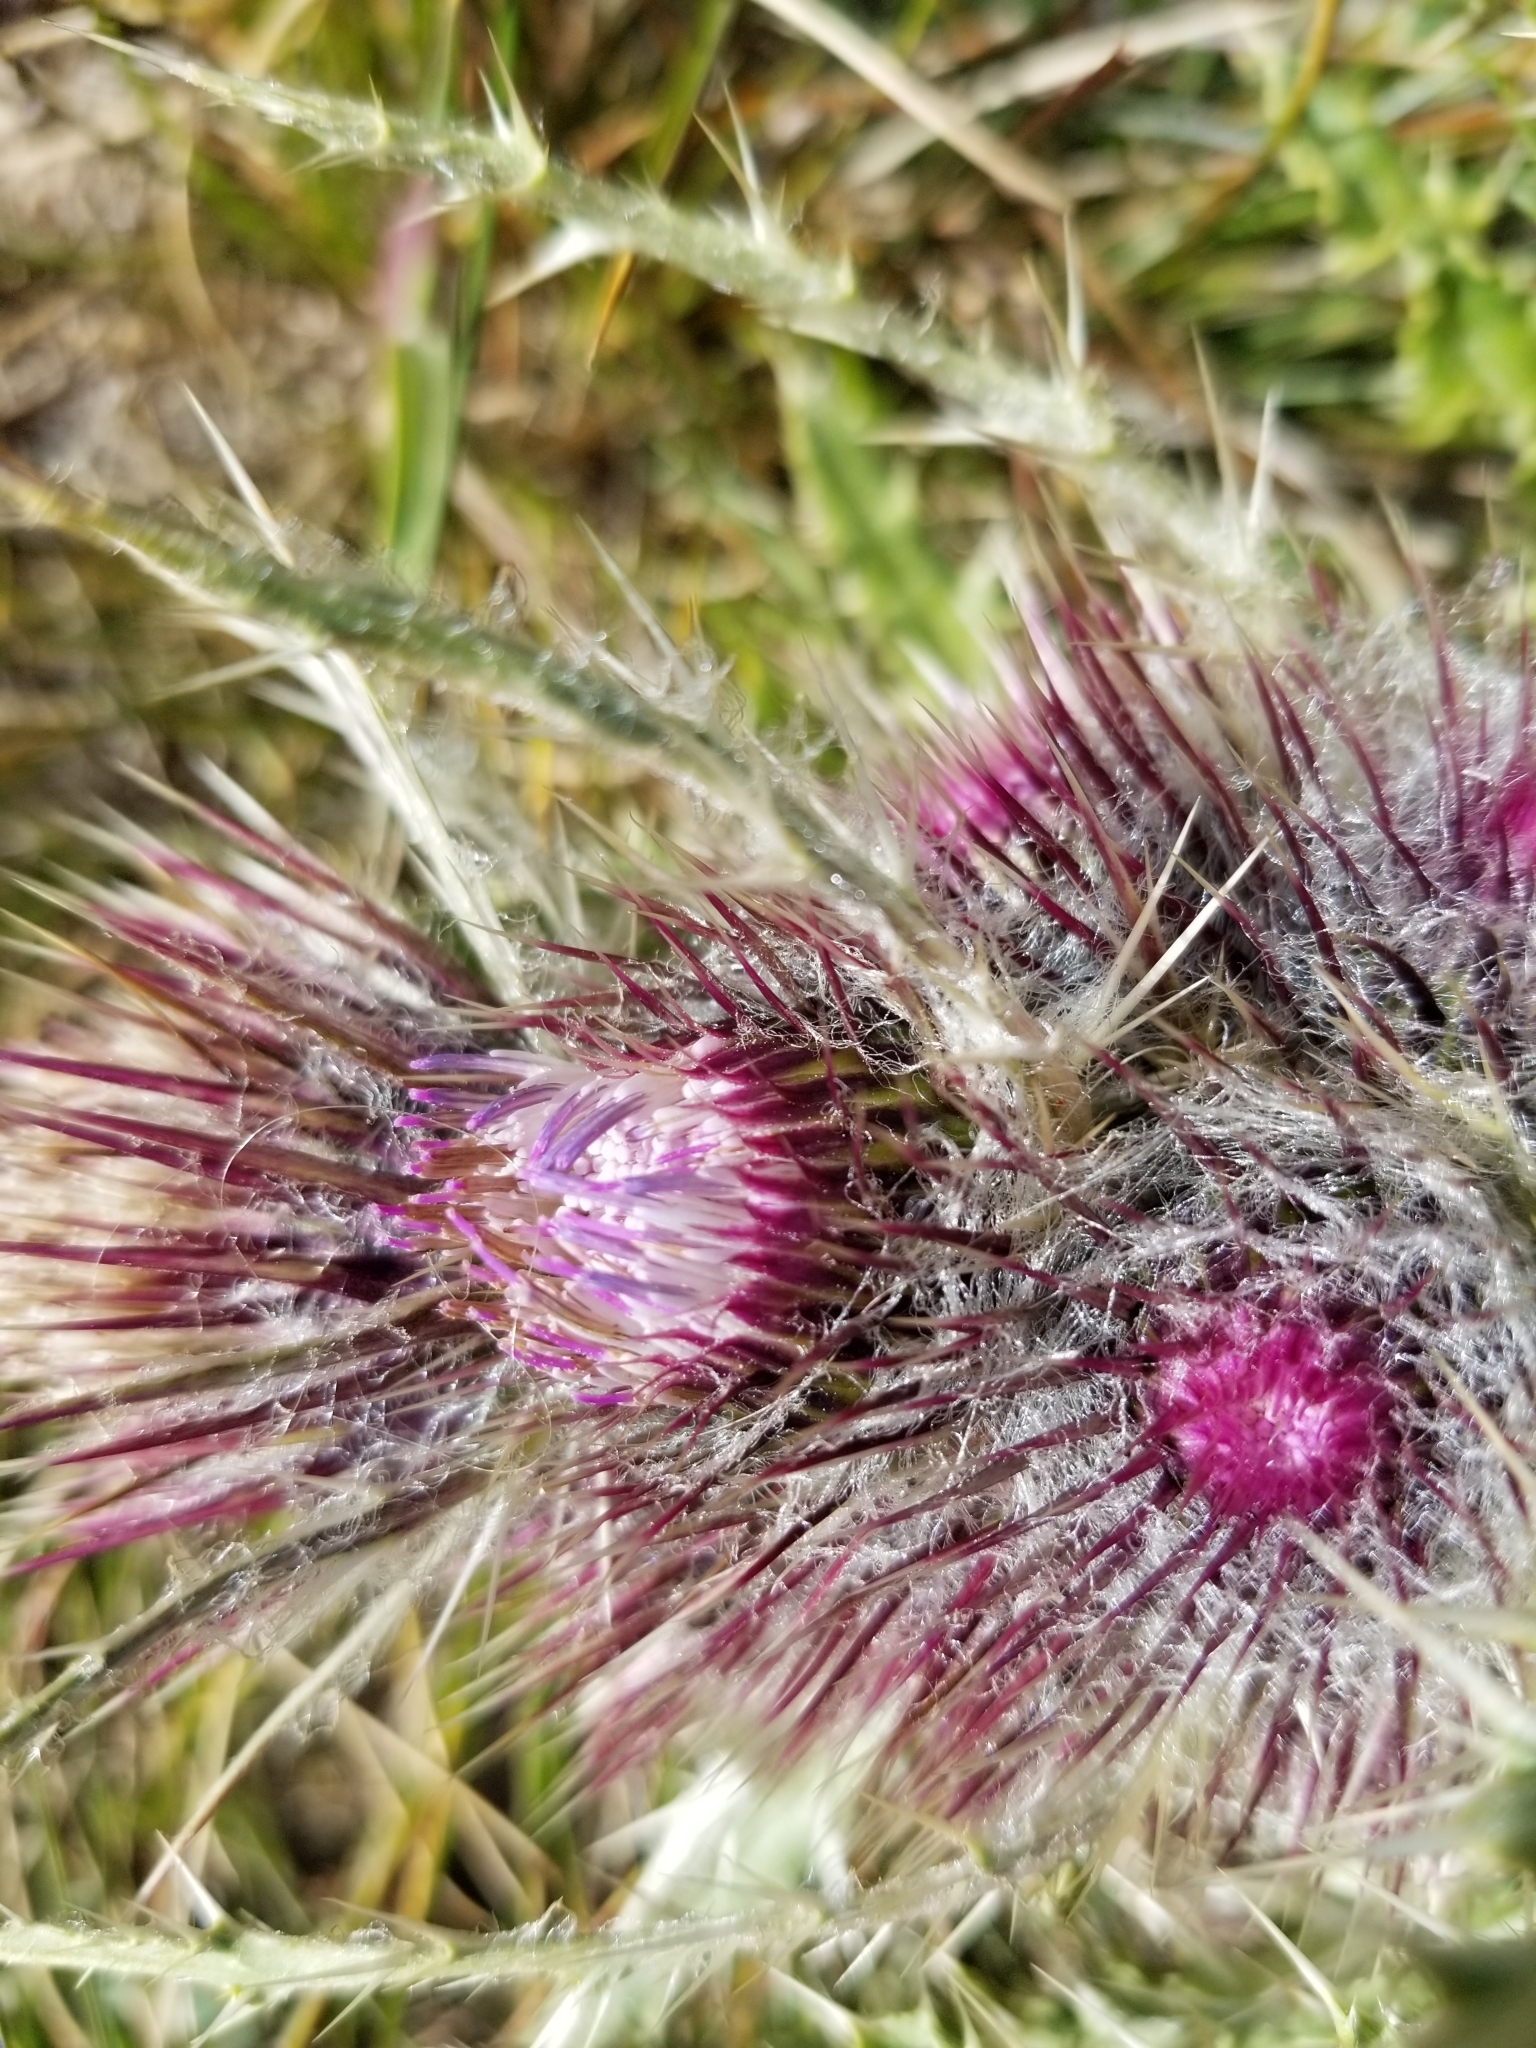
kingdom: Plantae
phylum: Tracheophyta
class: Magnoliopsida
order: Asterales
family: Asteraceae
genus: Cirsium
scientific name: Cirsium hesperium
